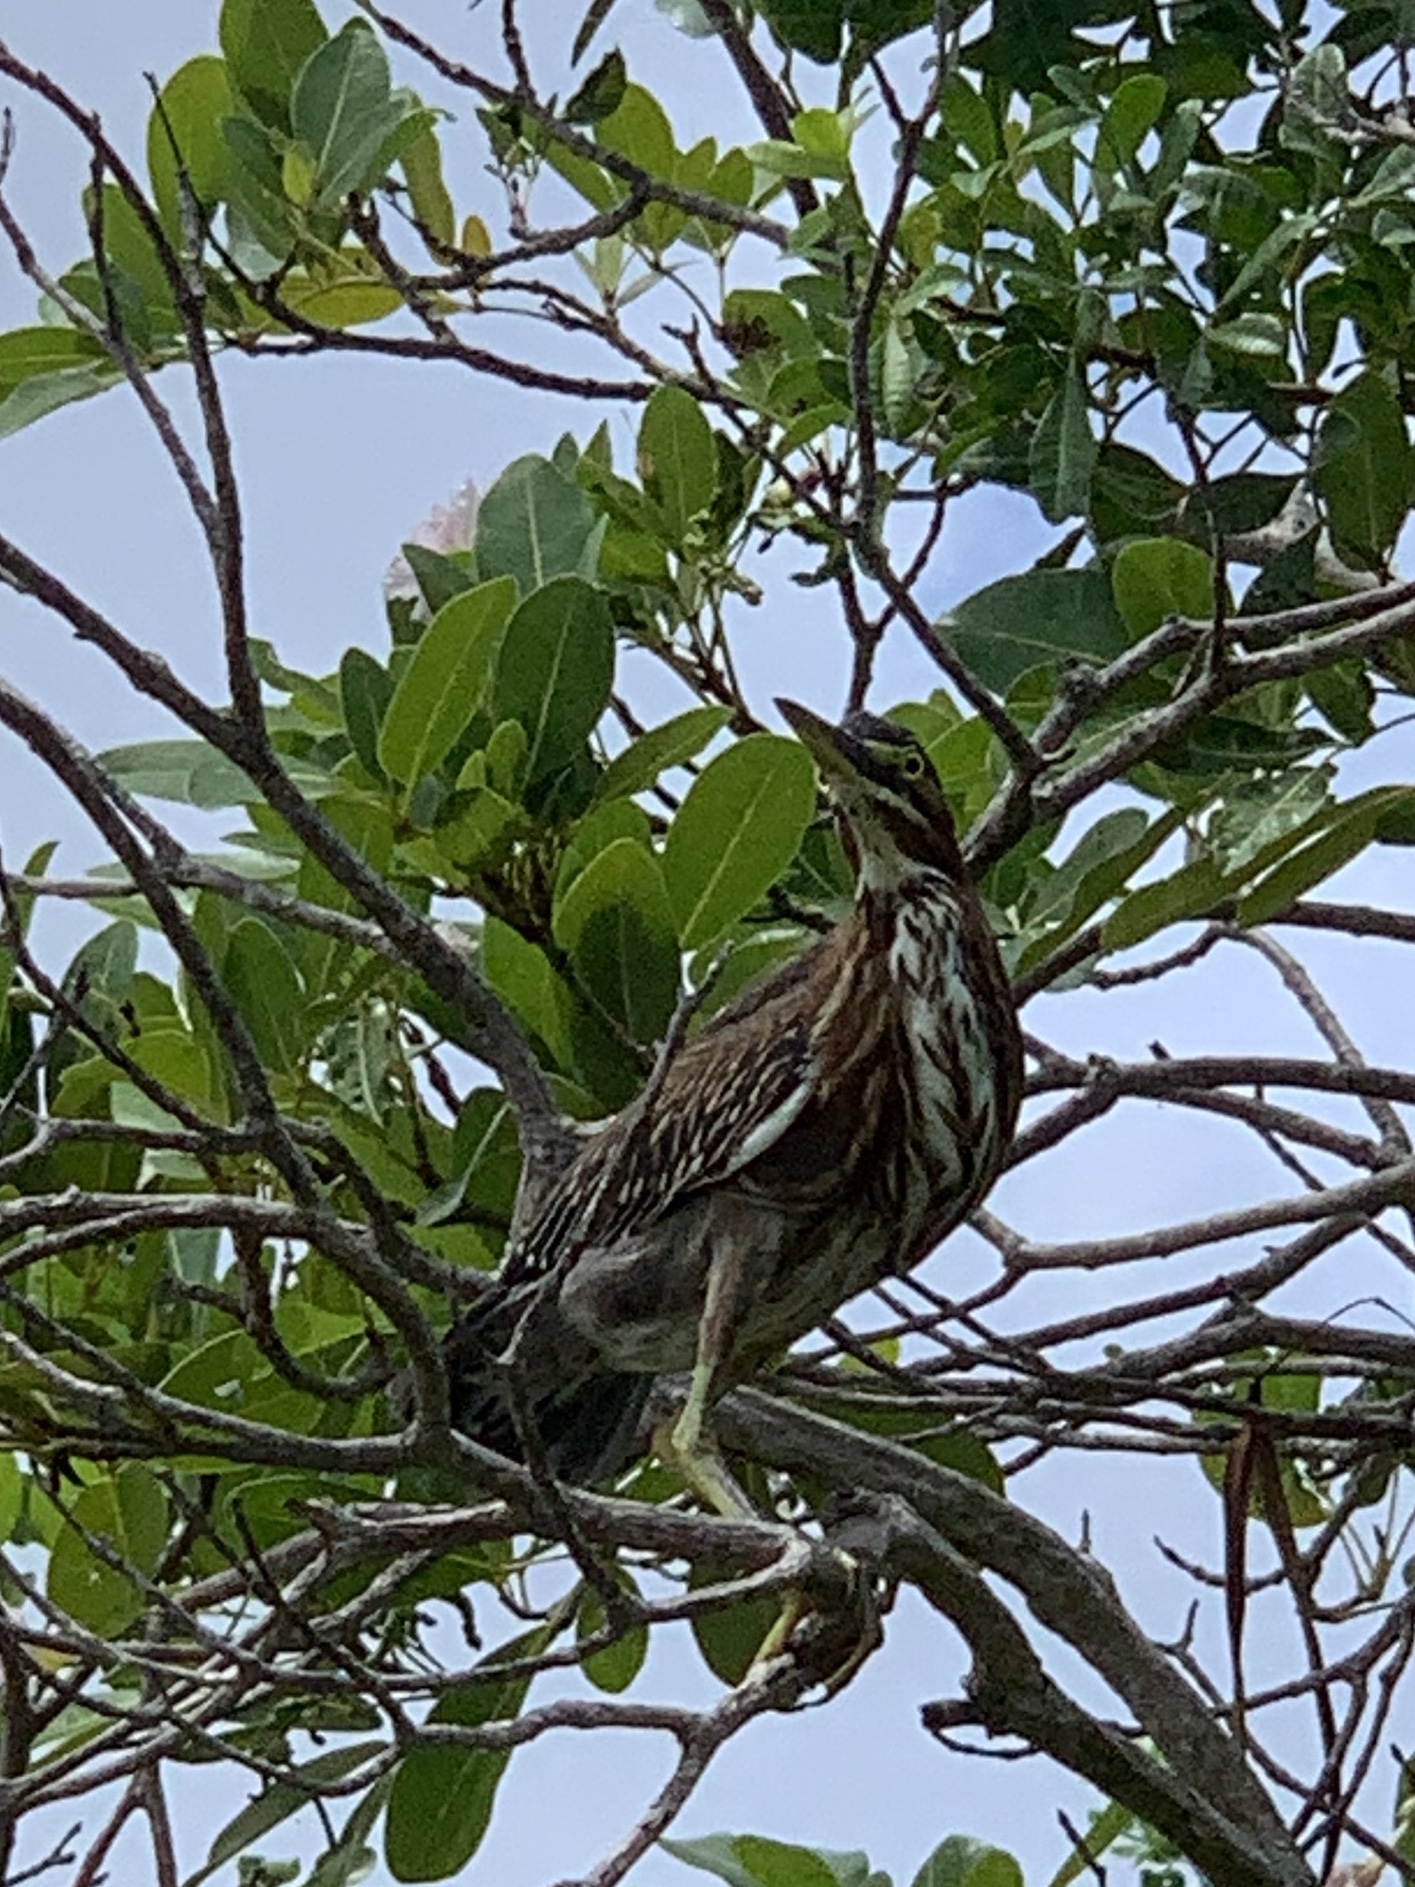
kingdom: Animalia
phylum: Chordata
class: Aves
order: Pelecaniformes
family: Ardeidae
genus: Butorides
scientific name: Butorides virescens
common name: Green heron
